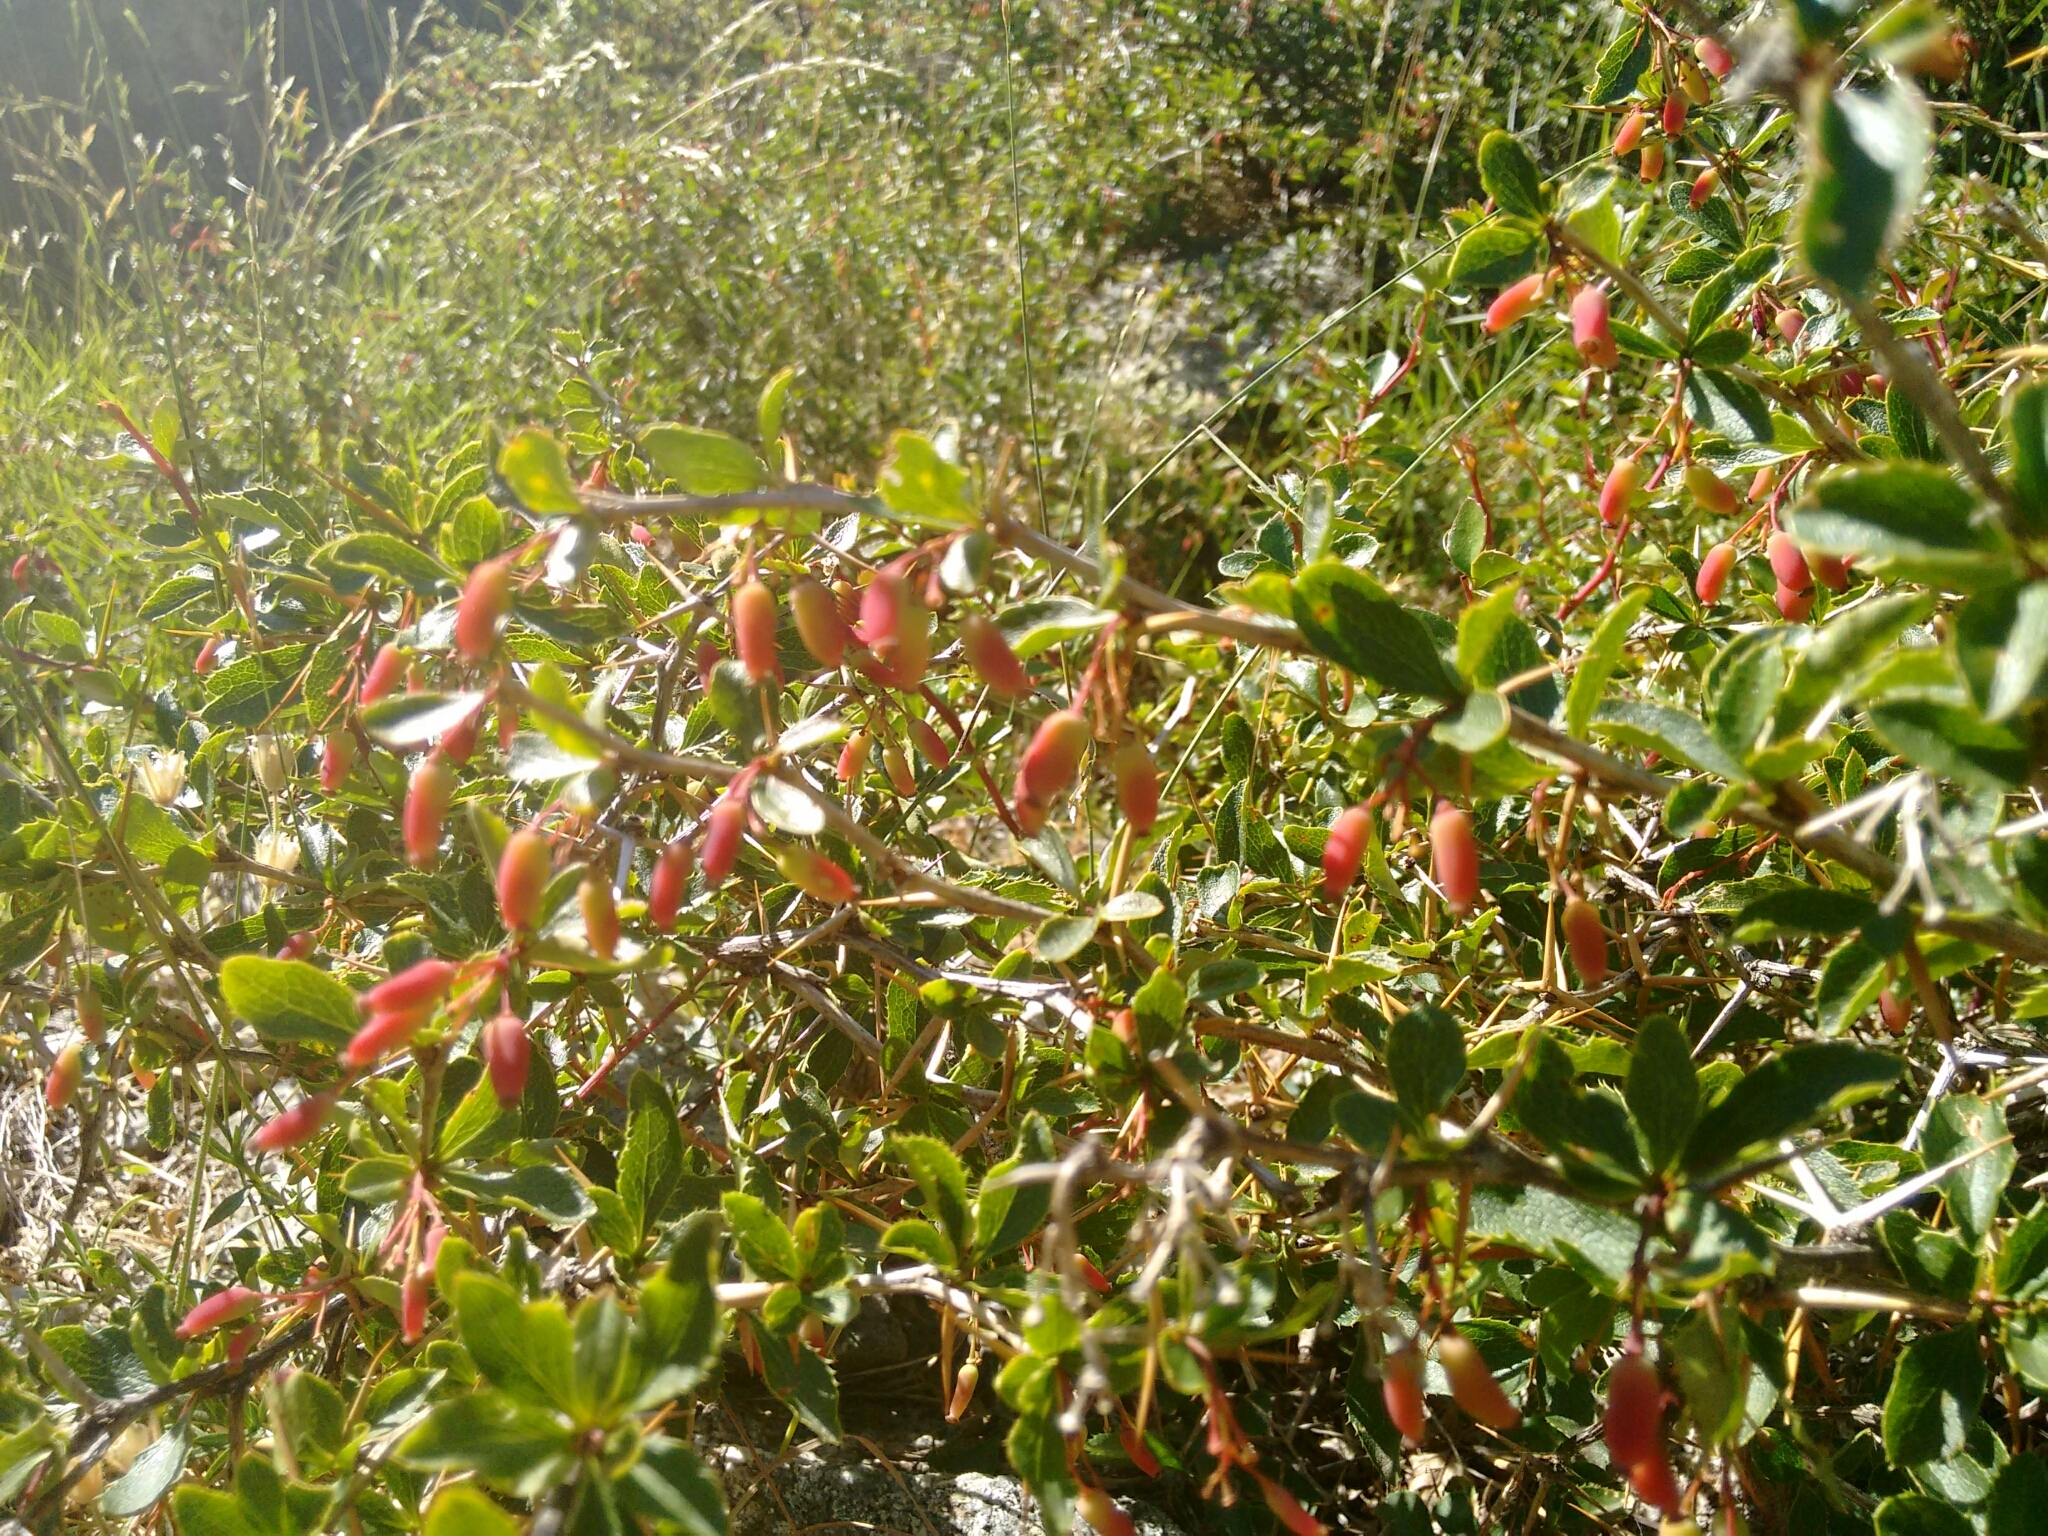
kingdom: Plantae
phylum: Tracheophyta
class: Magnoliopsida
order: Ranunculales
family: Berberidaceae
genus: Berberis
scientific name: Berberis aetnensis
